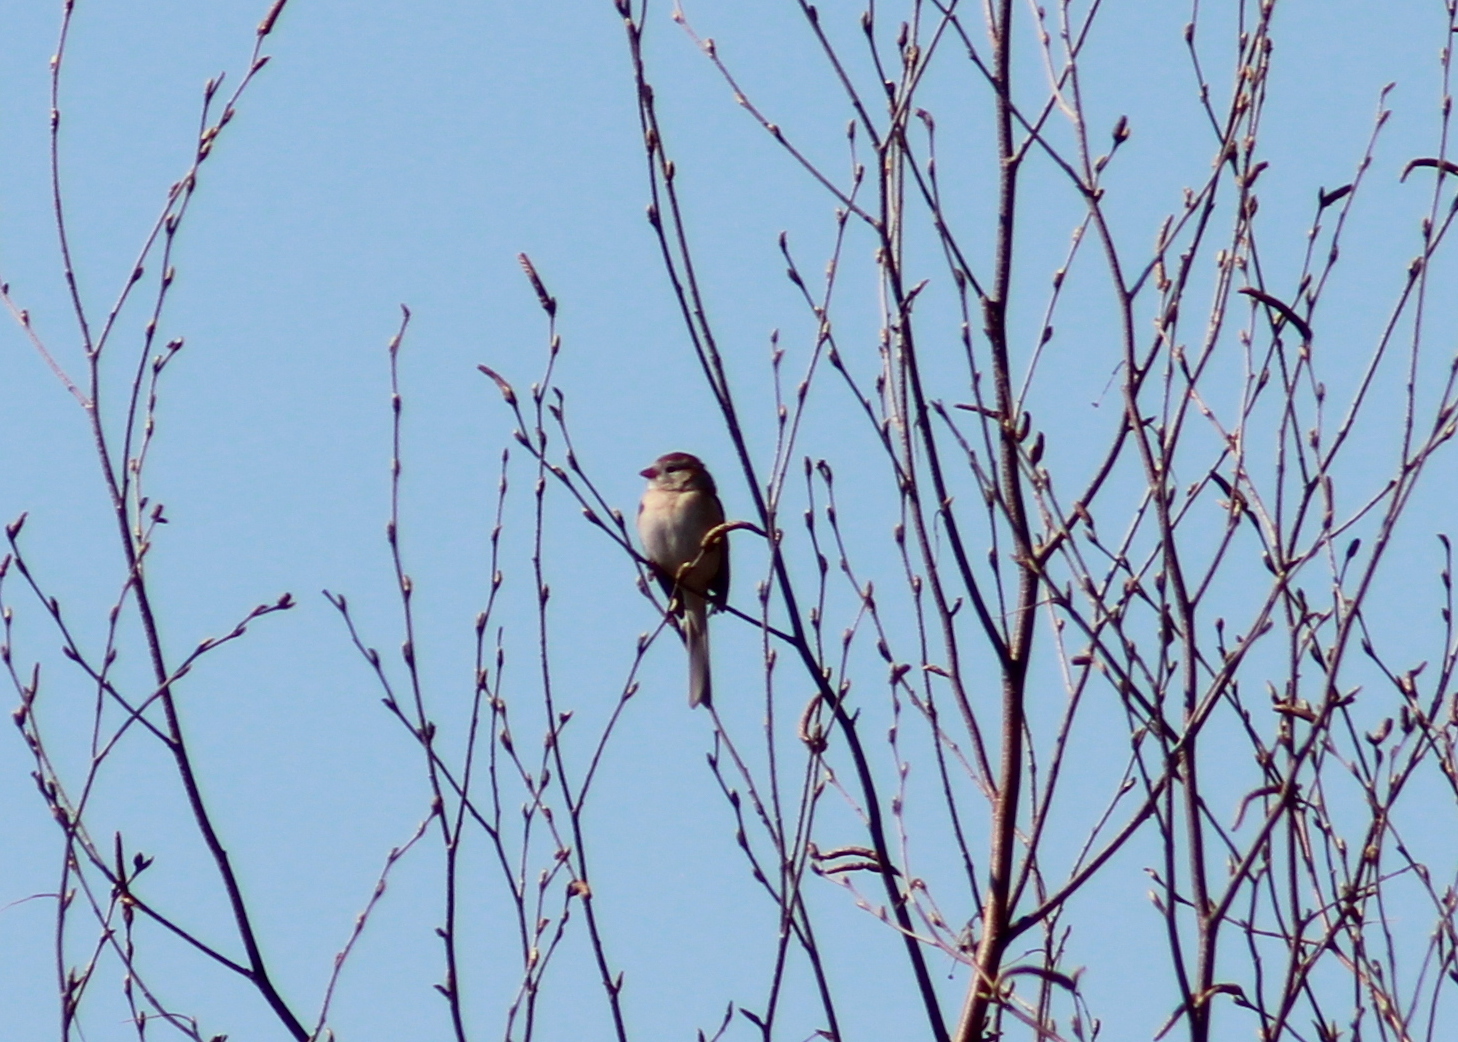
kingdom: Animalia
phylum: Chordata
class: Aves
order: Passeriformes
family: Passerellidae
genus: Spizella
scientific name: Spizella pusilla
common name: Field sparrow
